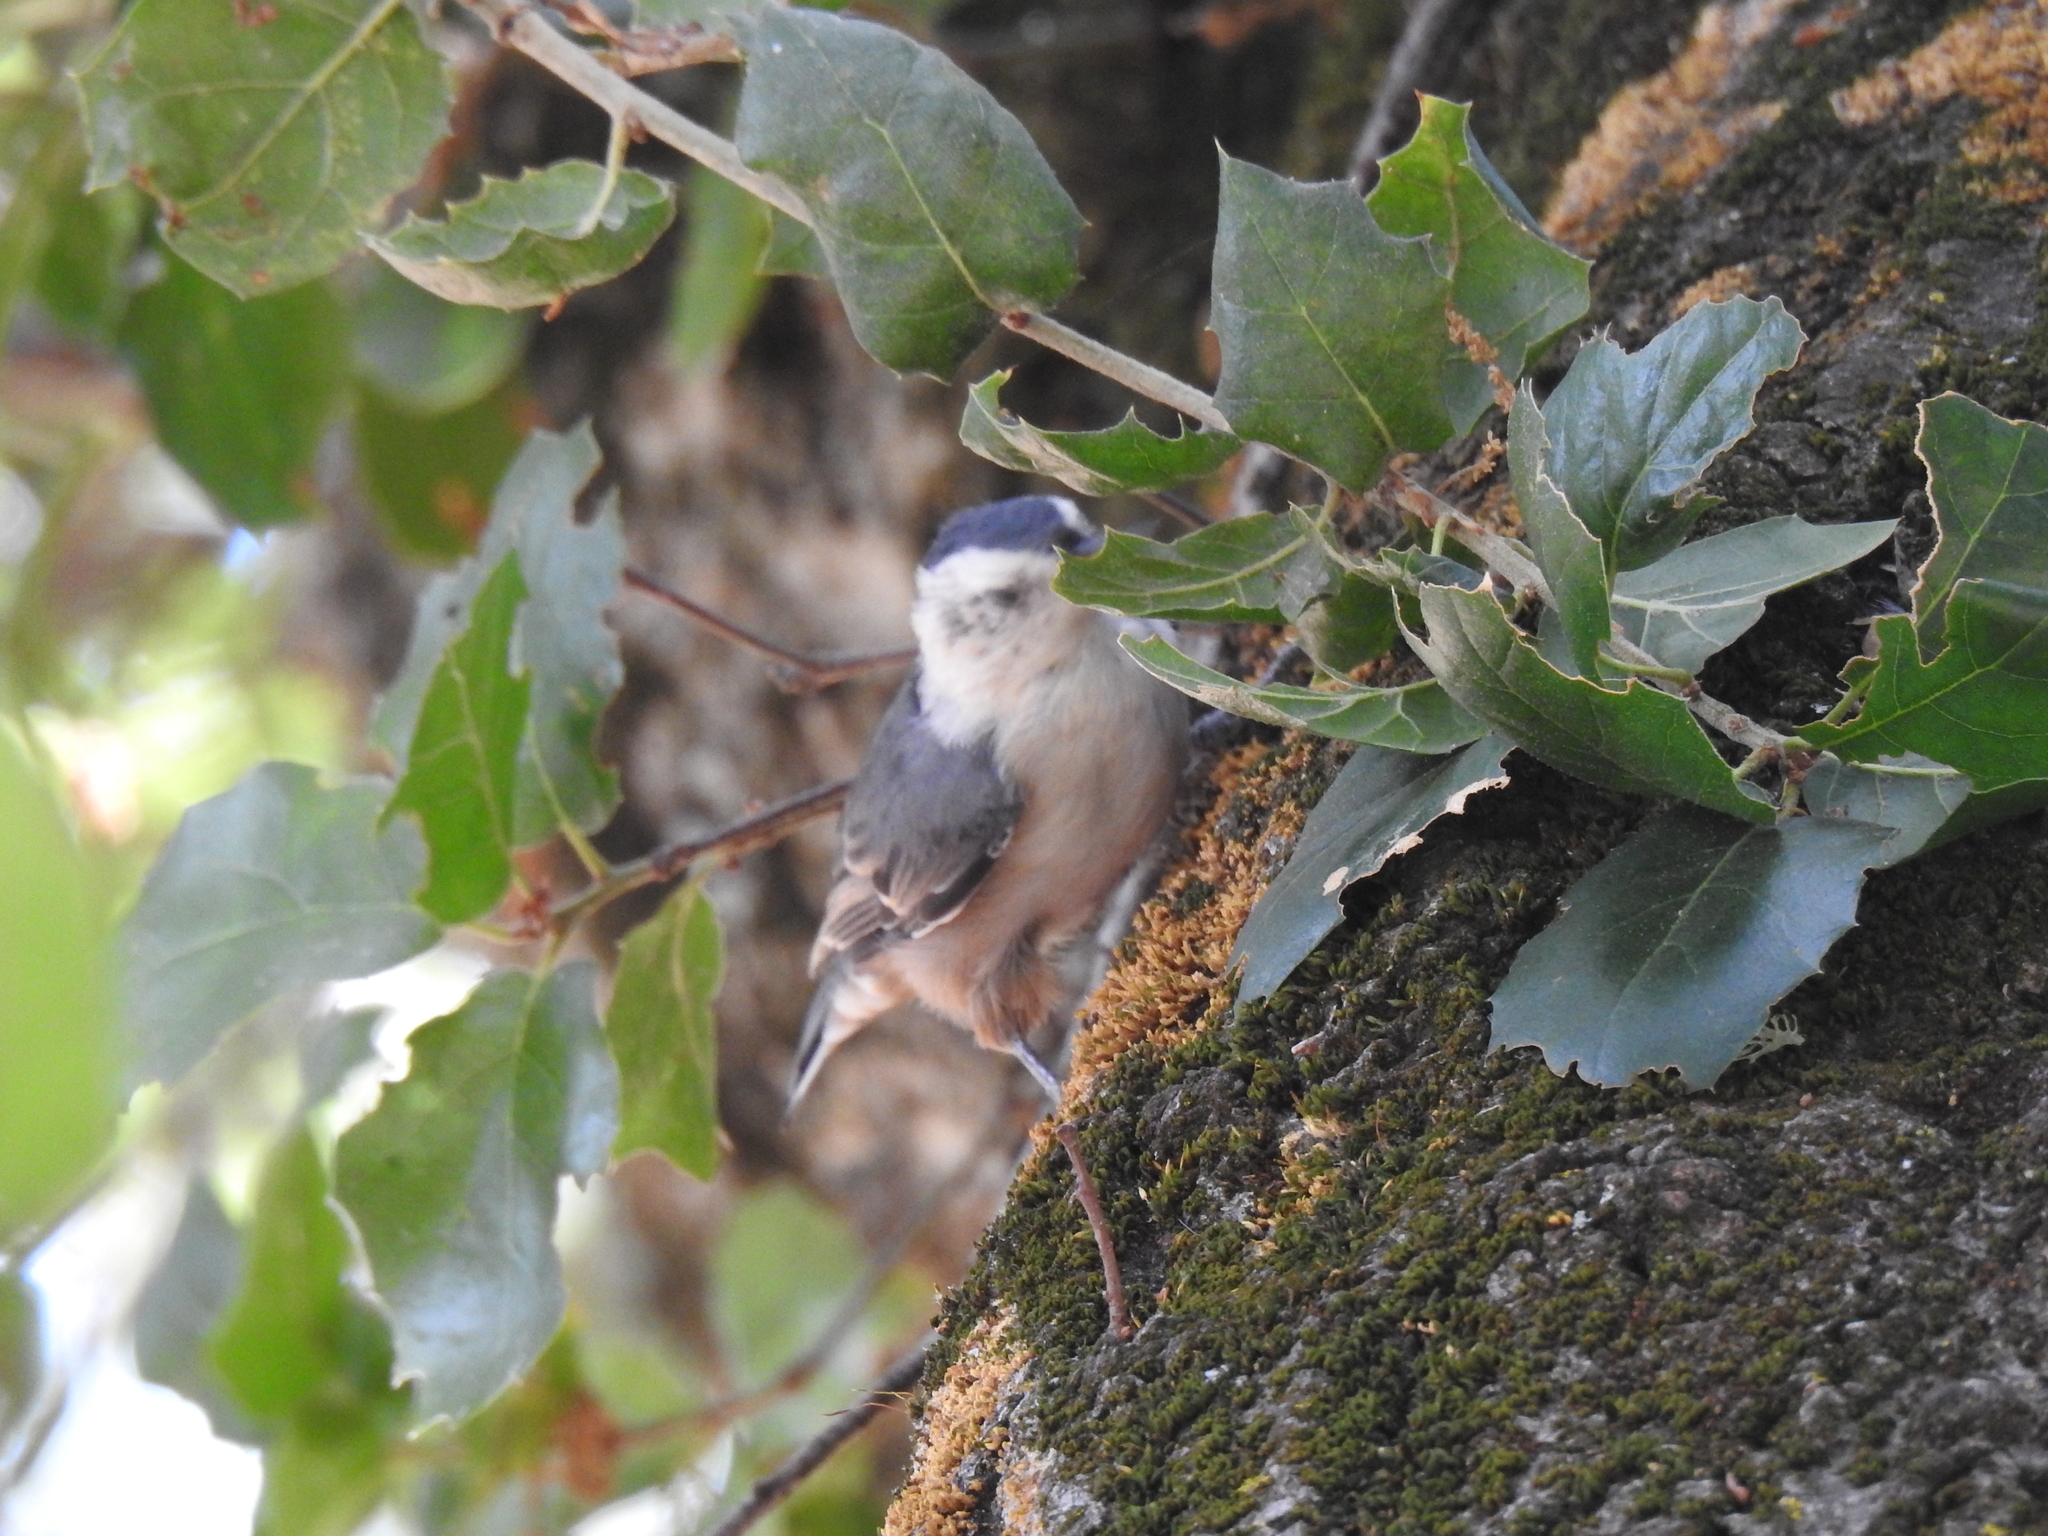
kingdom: Animalia
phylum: Chordata
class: Aves
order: Passeriformes
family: Sittidae
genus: Sitta
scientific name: Sitta carolinensis
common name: White-breasted nuthatch
